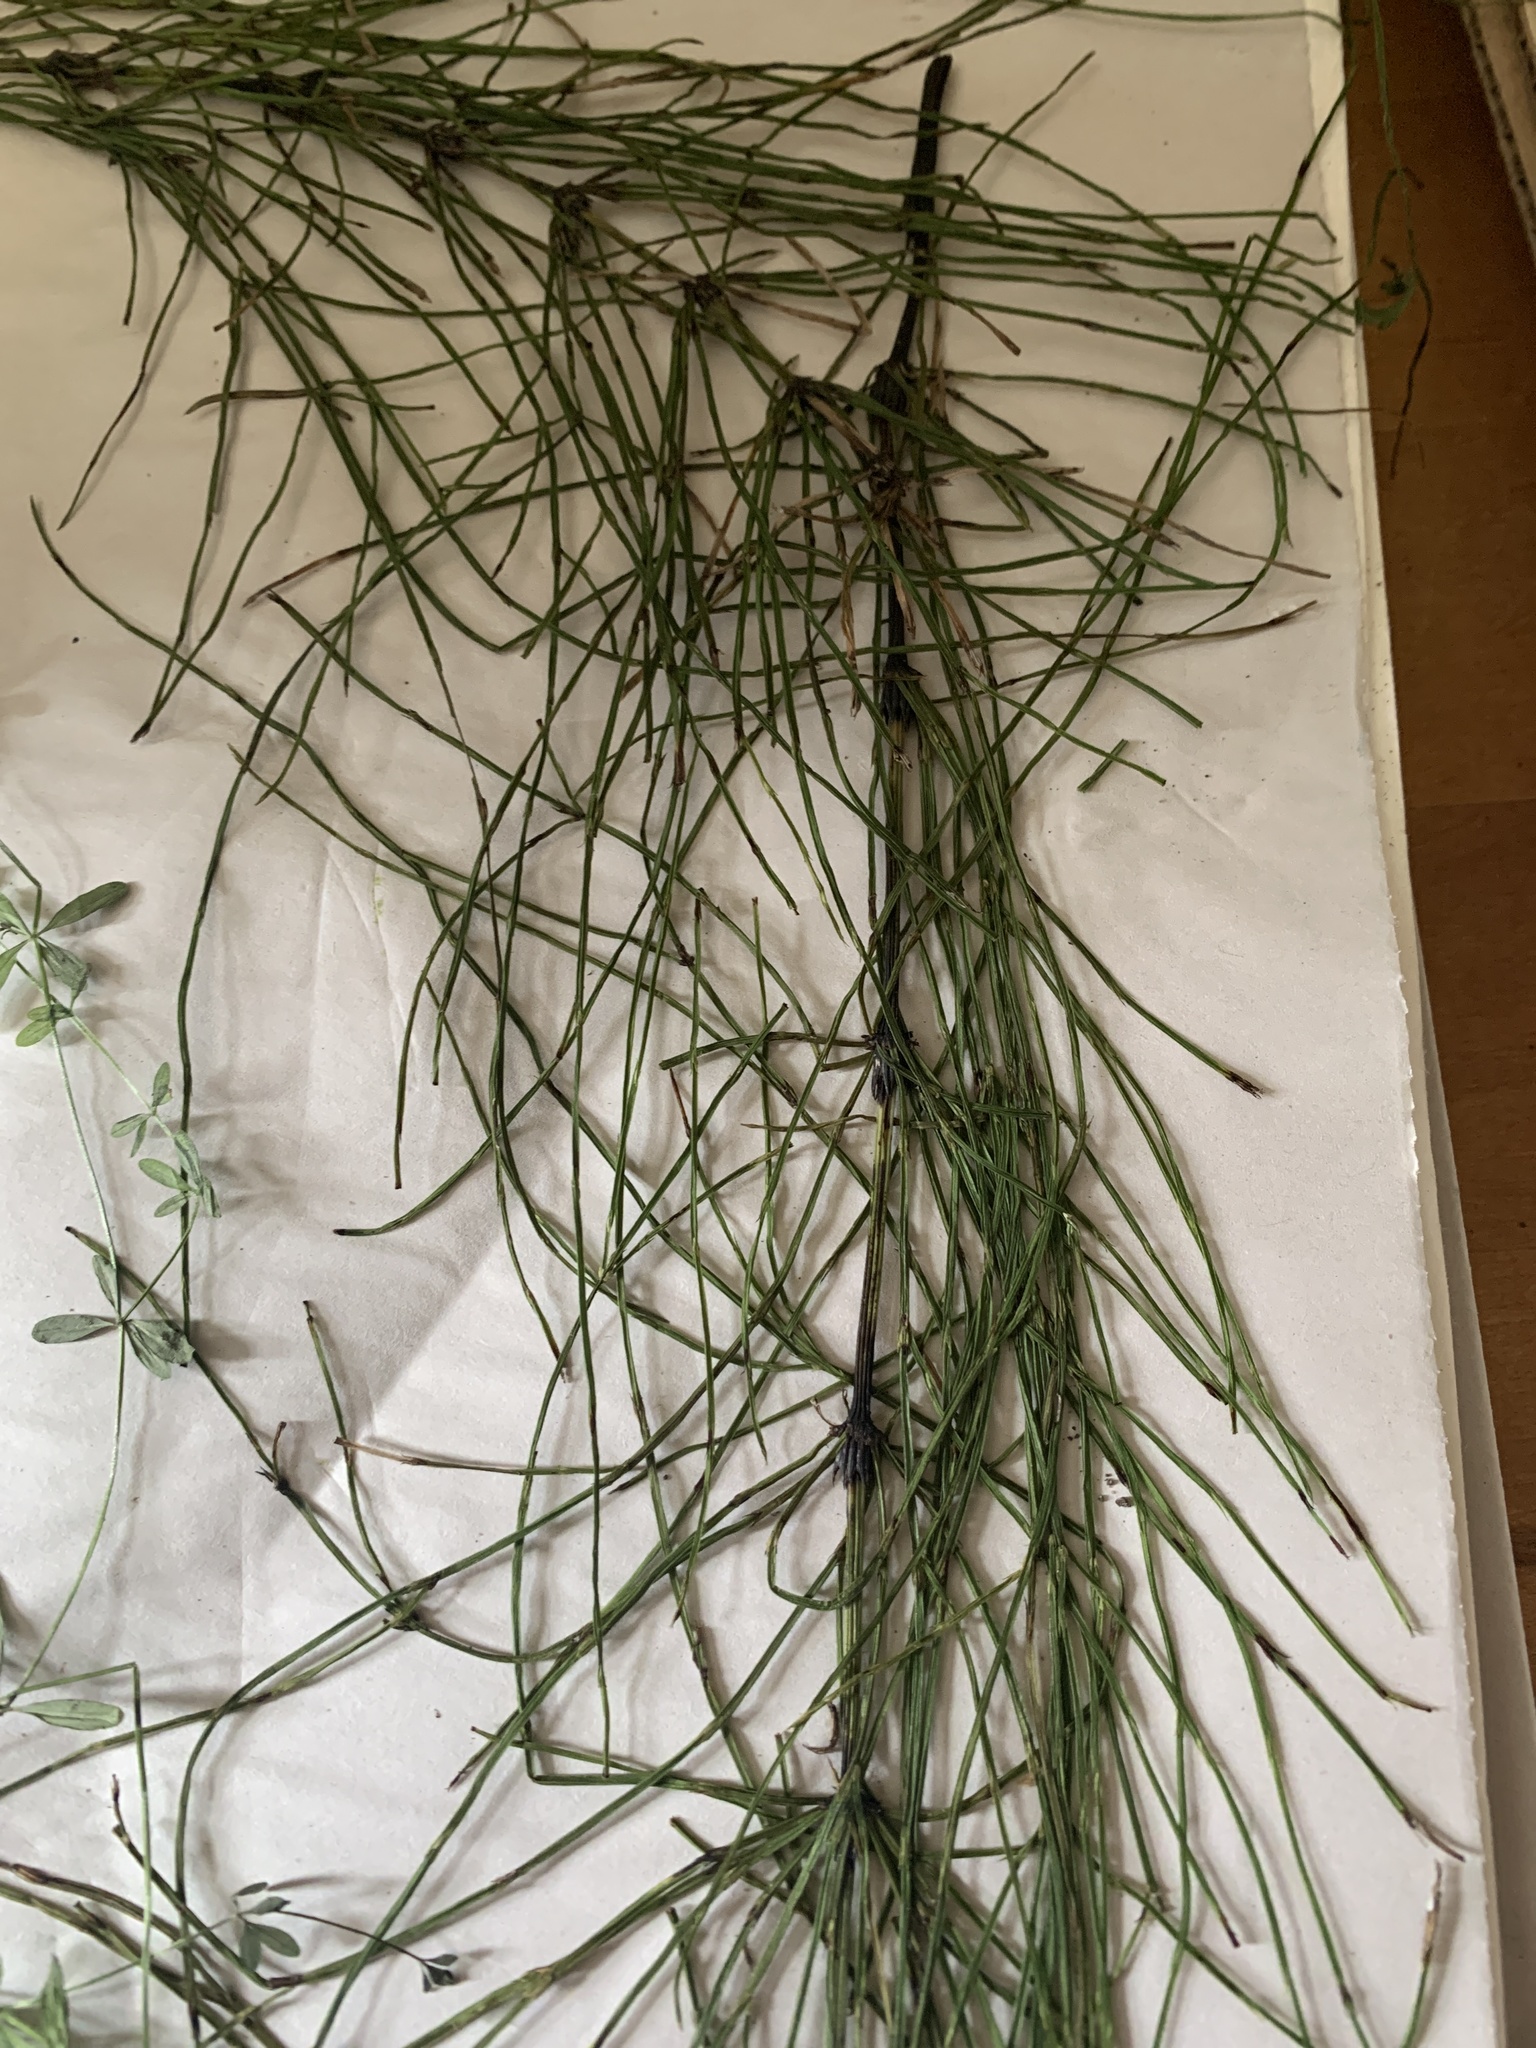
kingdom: Plantae
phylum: Tracheophyta
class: Polypodiopsida
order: Equisetales
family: Equisetaceae
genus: Equisetum
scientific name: Equisetum arvense
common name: Field horsetail
